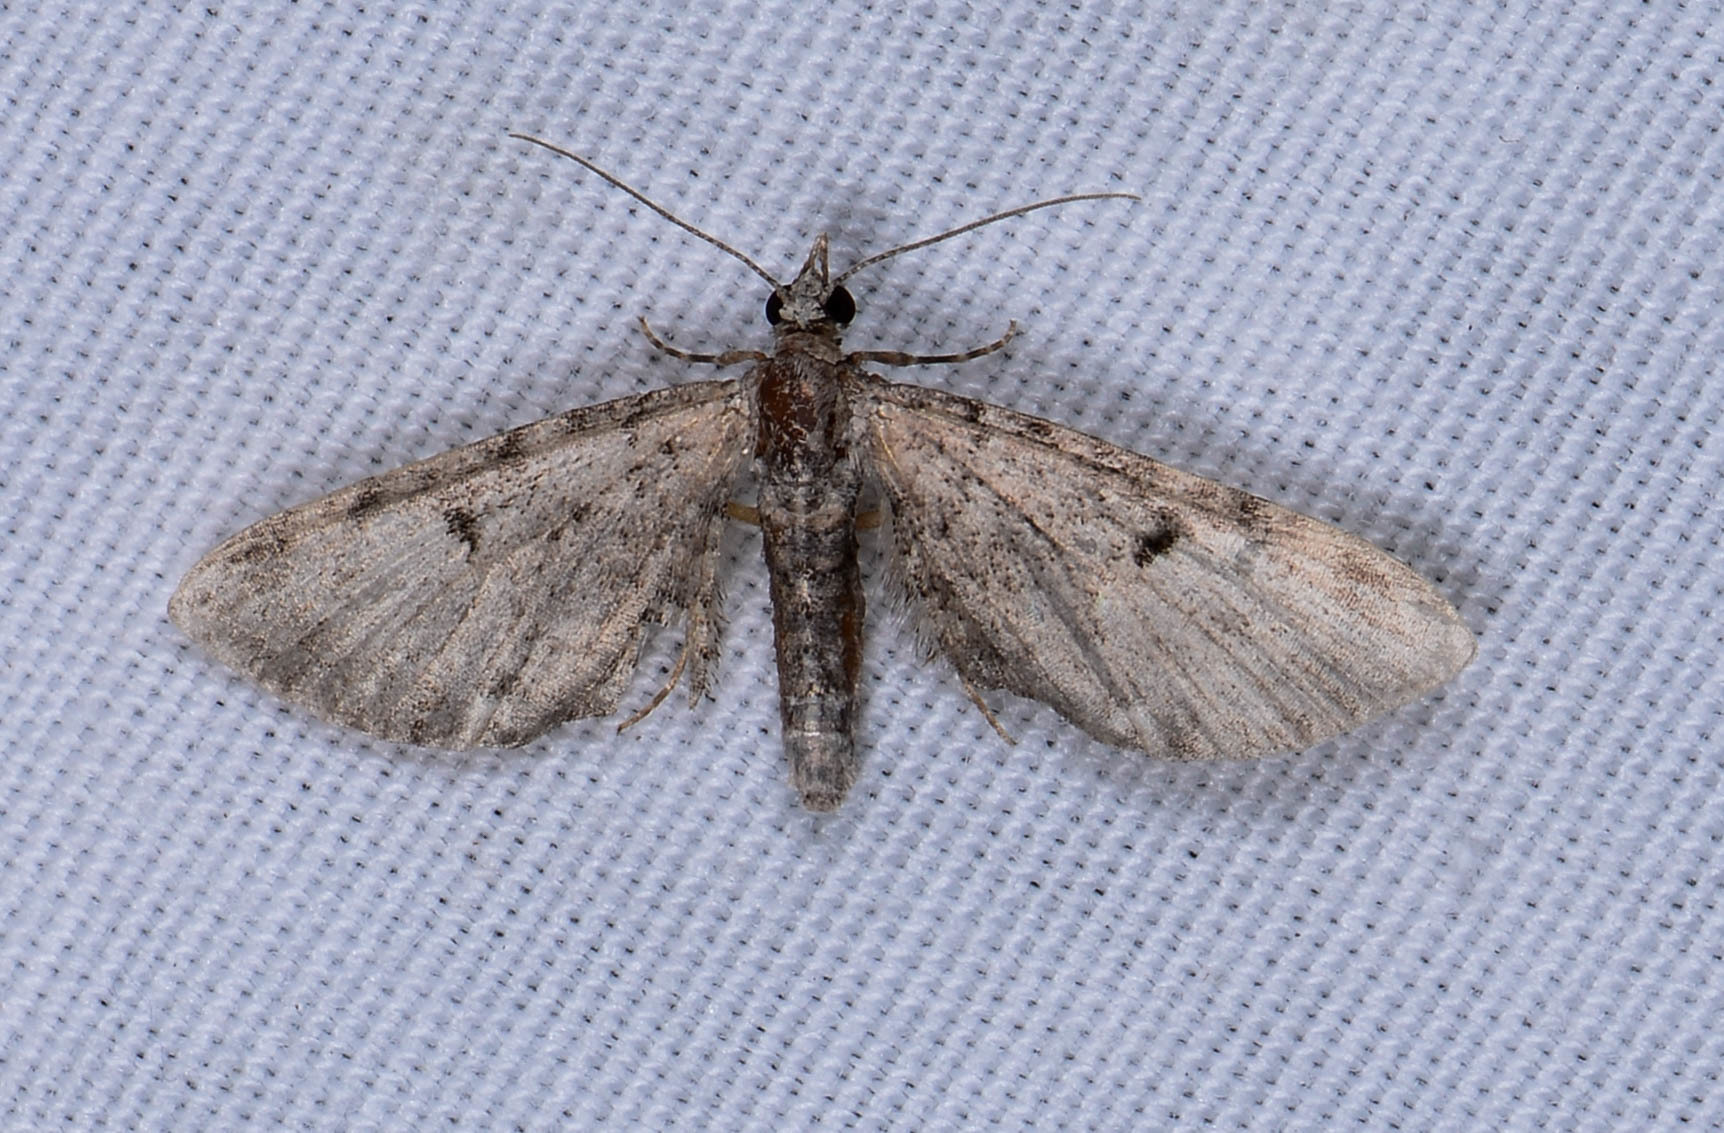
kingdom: Animalia
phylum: Arthropoda
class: Insecta
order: Lepidoptera
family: Geometridae
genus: Eupithecia
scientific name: Eupithecia miserulata
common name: Common eupithecia
